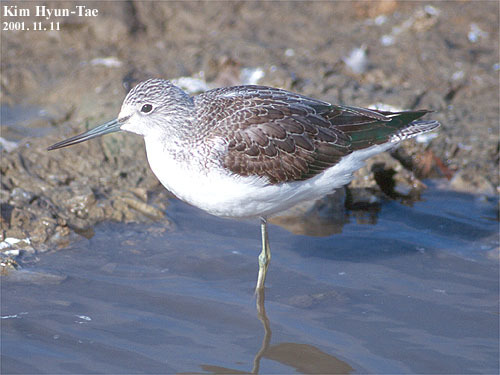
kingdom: Animalia
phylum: Chordata
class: Aves
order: Charadriiformes
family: Scolopacidae
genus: Tringa
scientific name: Tringa nebularia
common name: Common greenshank
